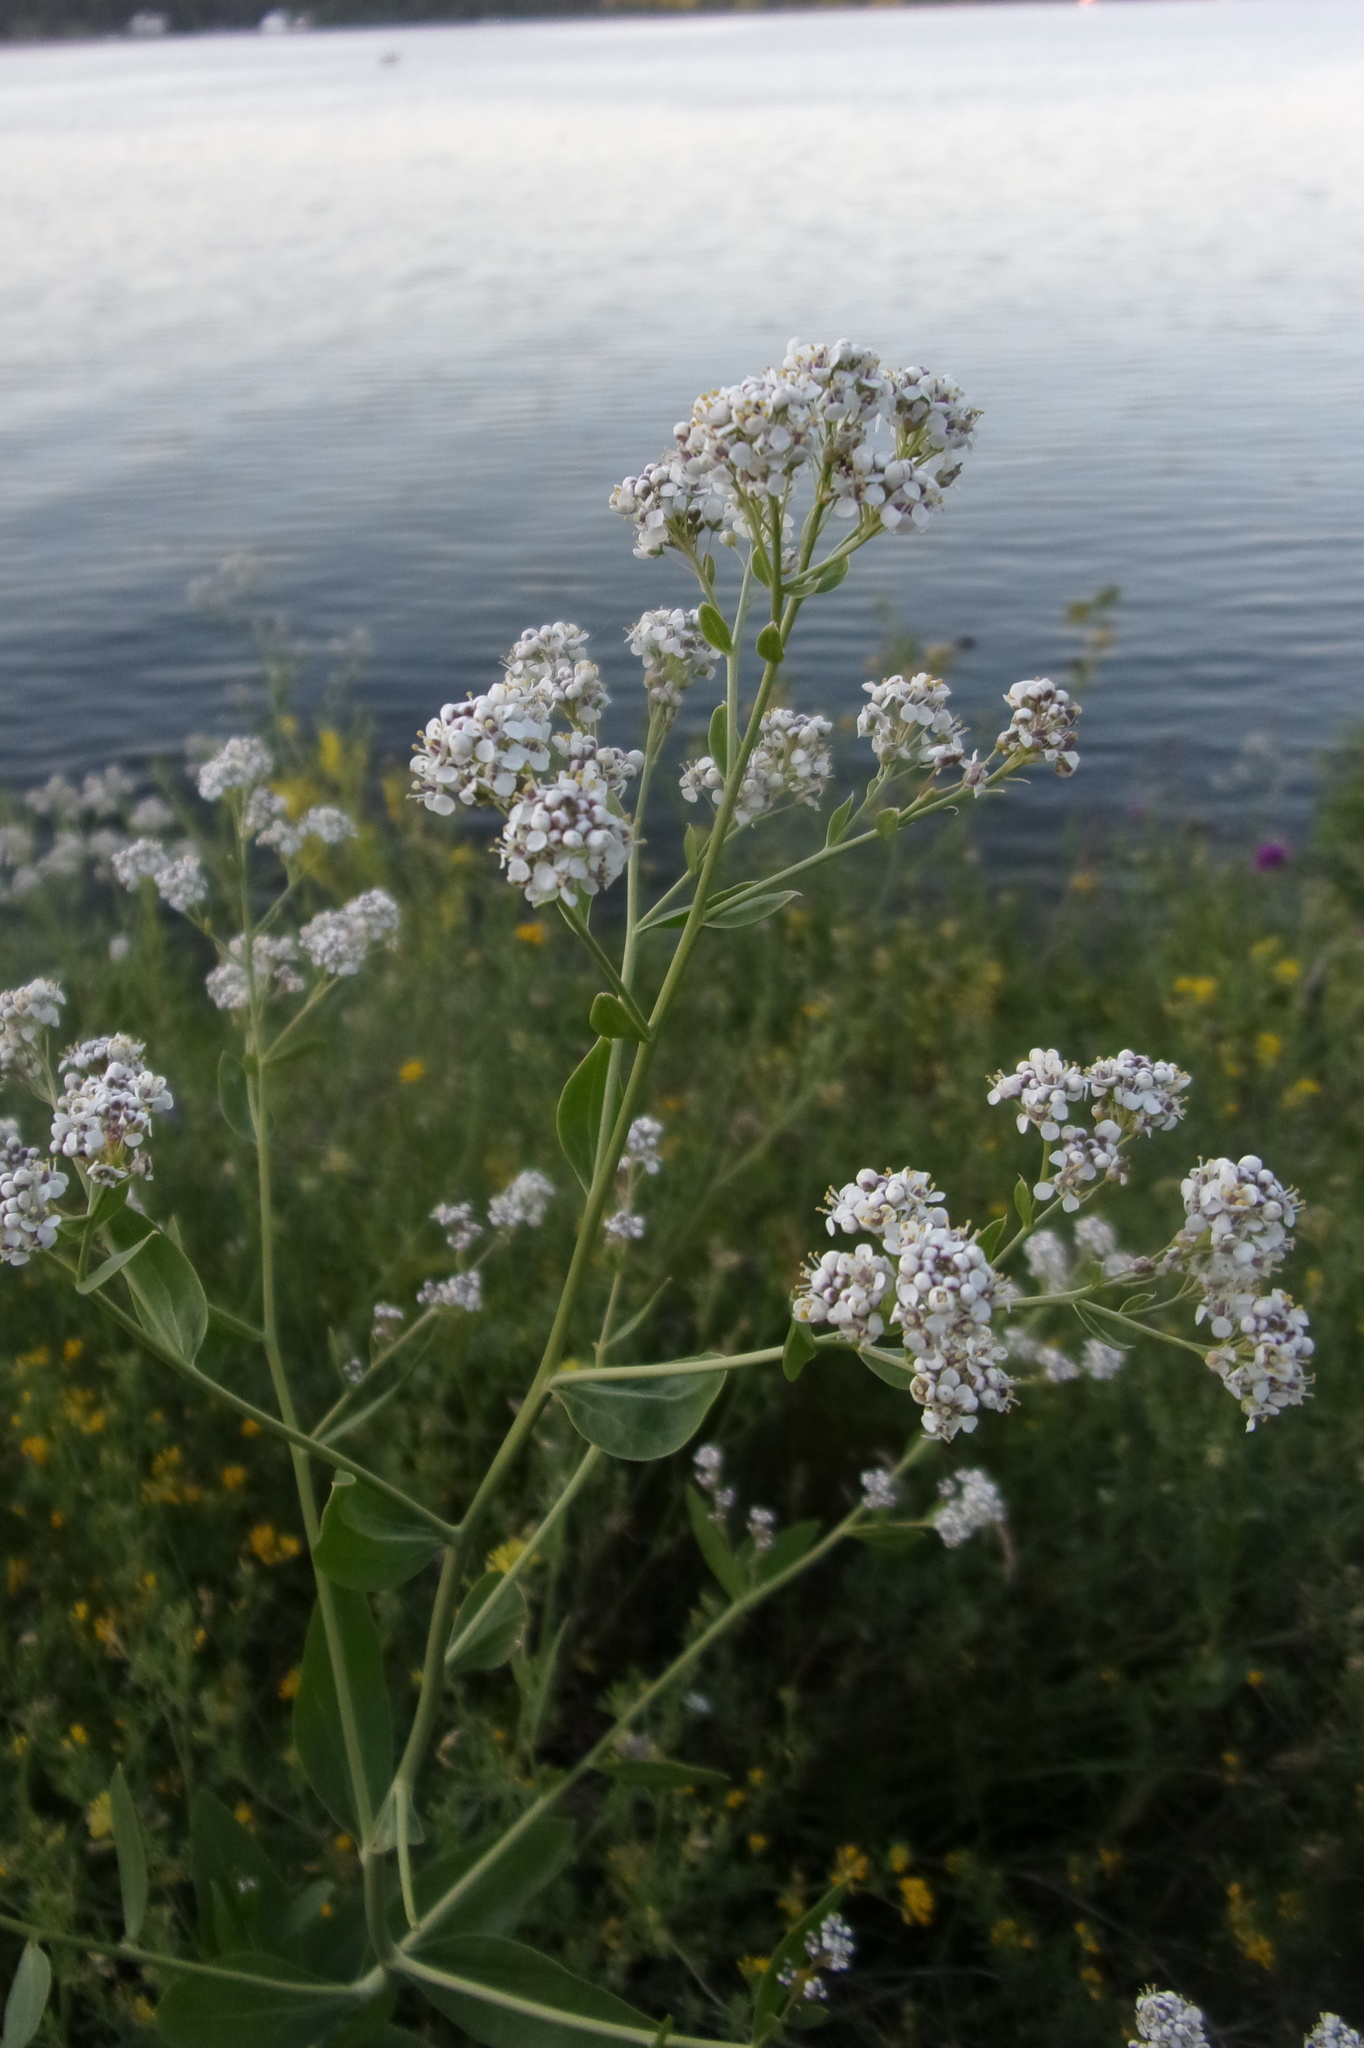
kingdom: Plantae
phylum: Tracheophyta
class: Magnoliopsida
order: Brassicales
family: Brassicaceae
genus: Lepidium
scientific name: Lepidium latifolium
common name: Dittander
